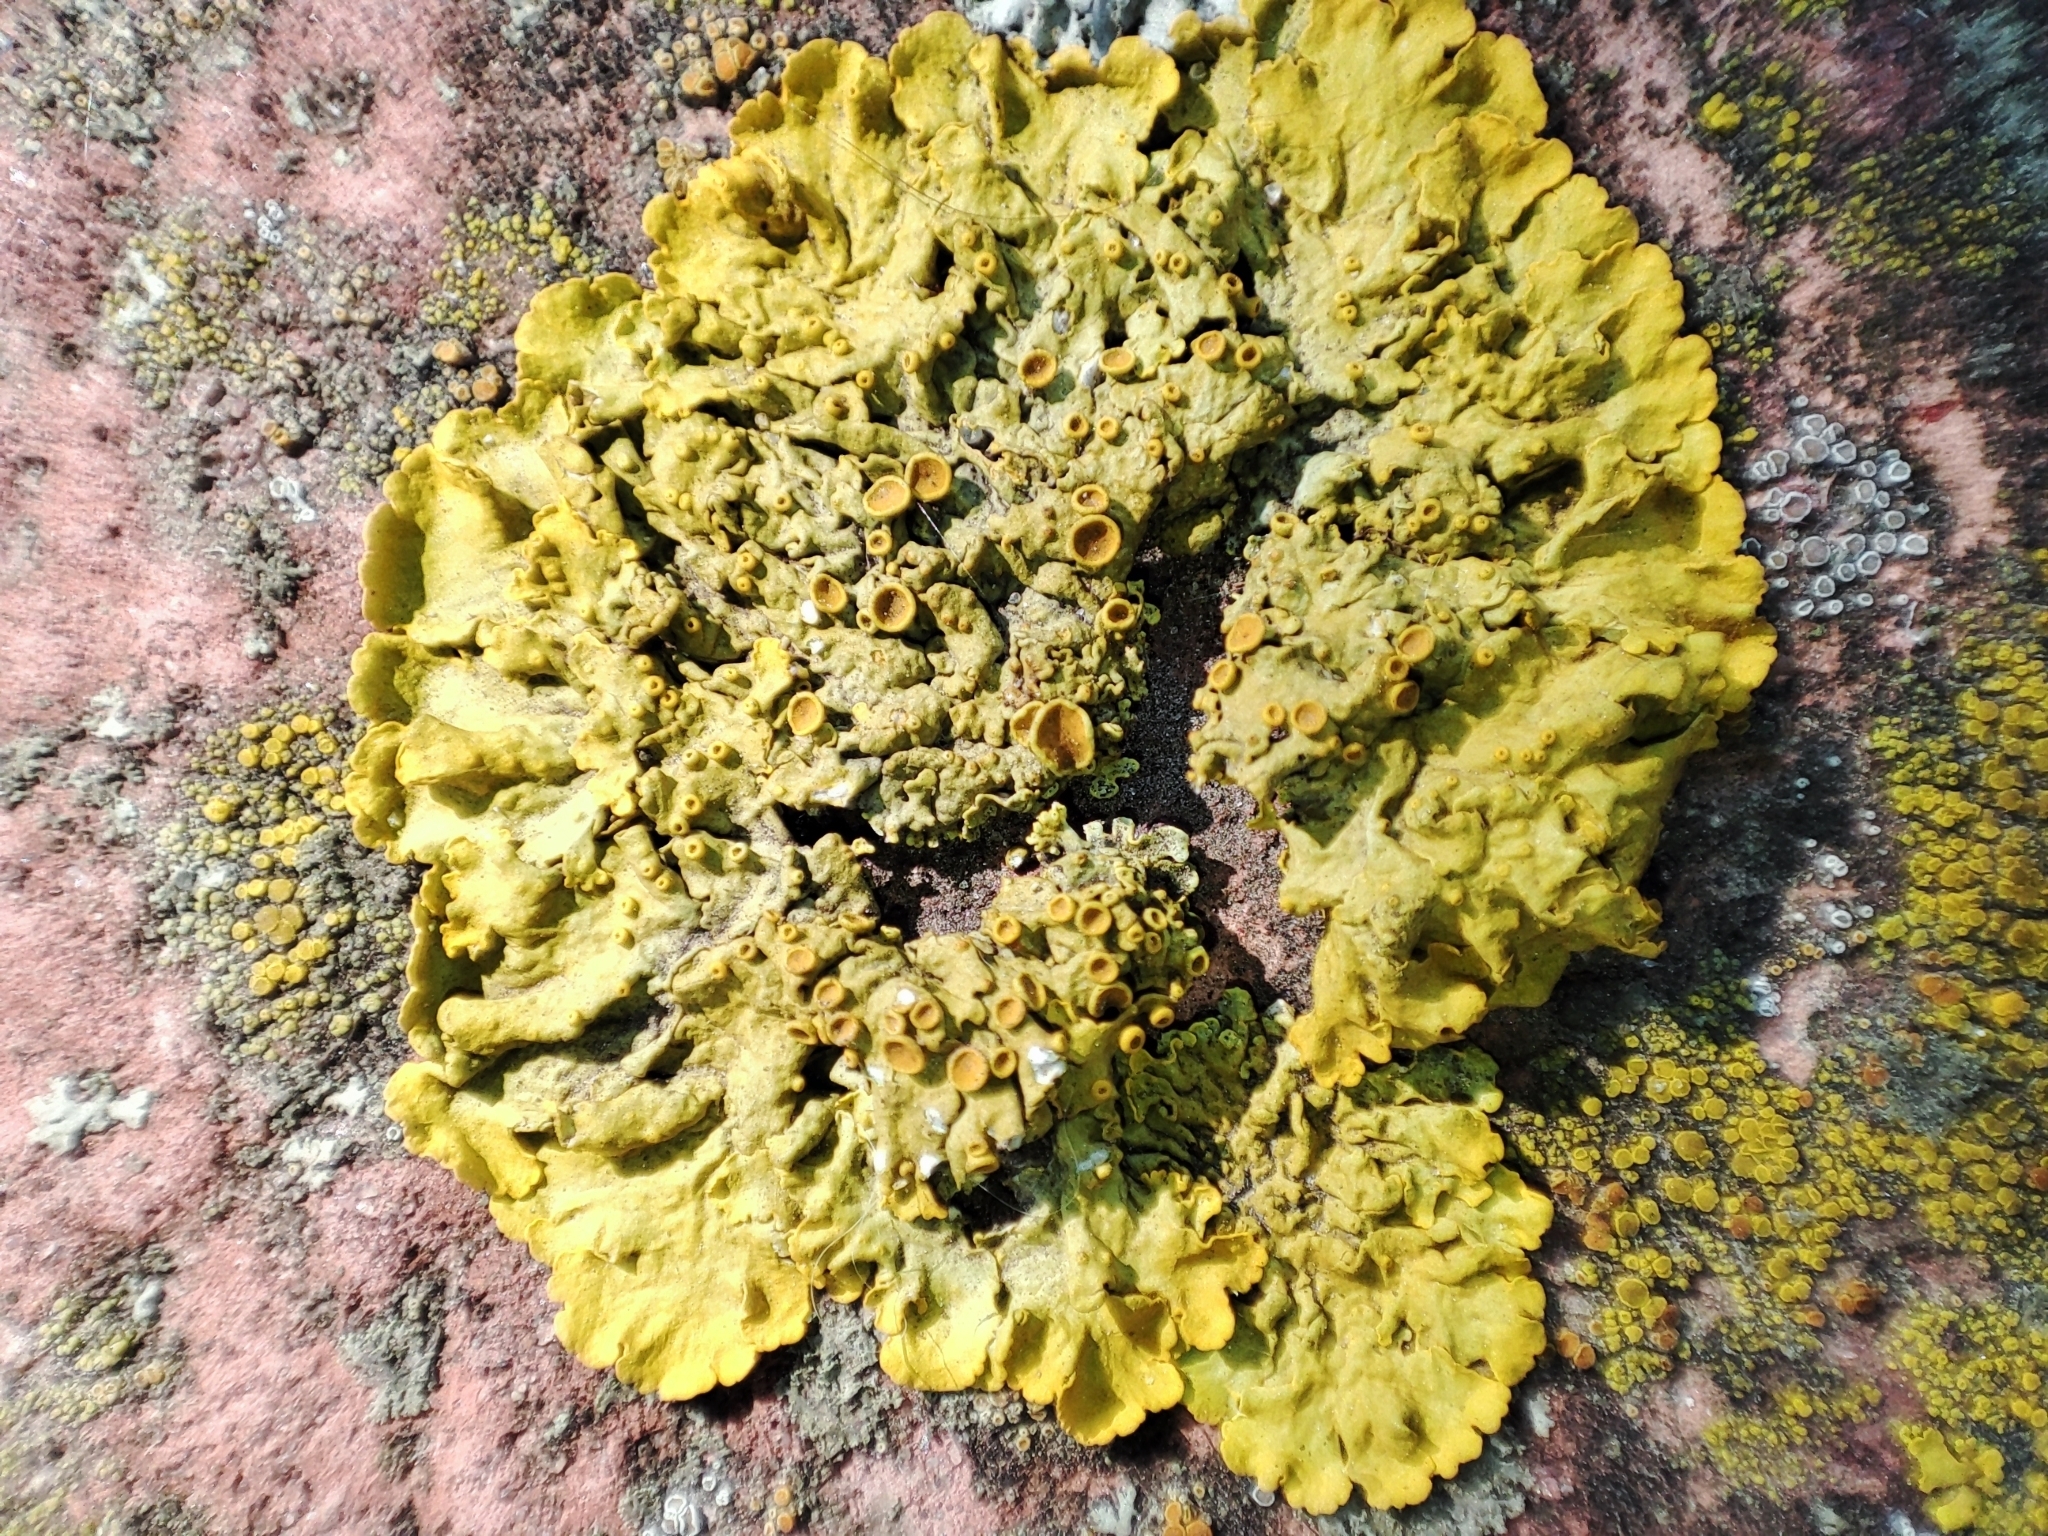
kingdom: Fungi
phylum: Ascomycota
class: Lecanoromycetes
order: Teloschistales
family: Teloschistaceae
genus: Xanthoria
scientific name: Xanthoria parietina
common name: Common orange lichen
